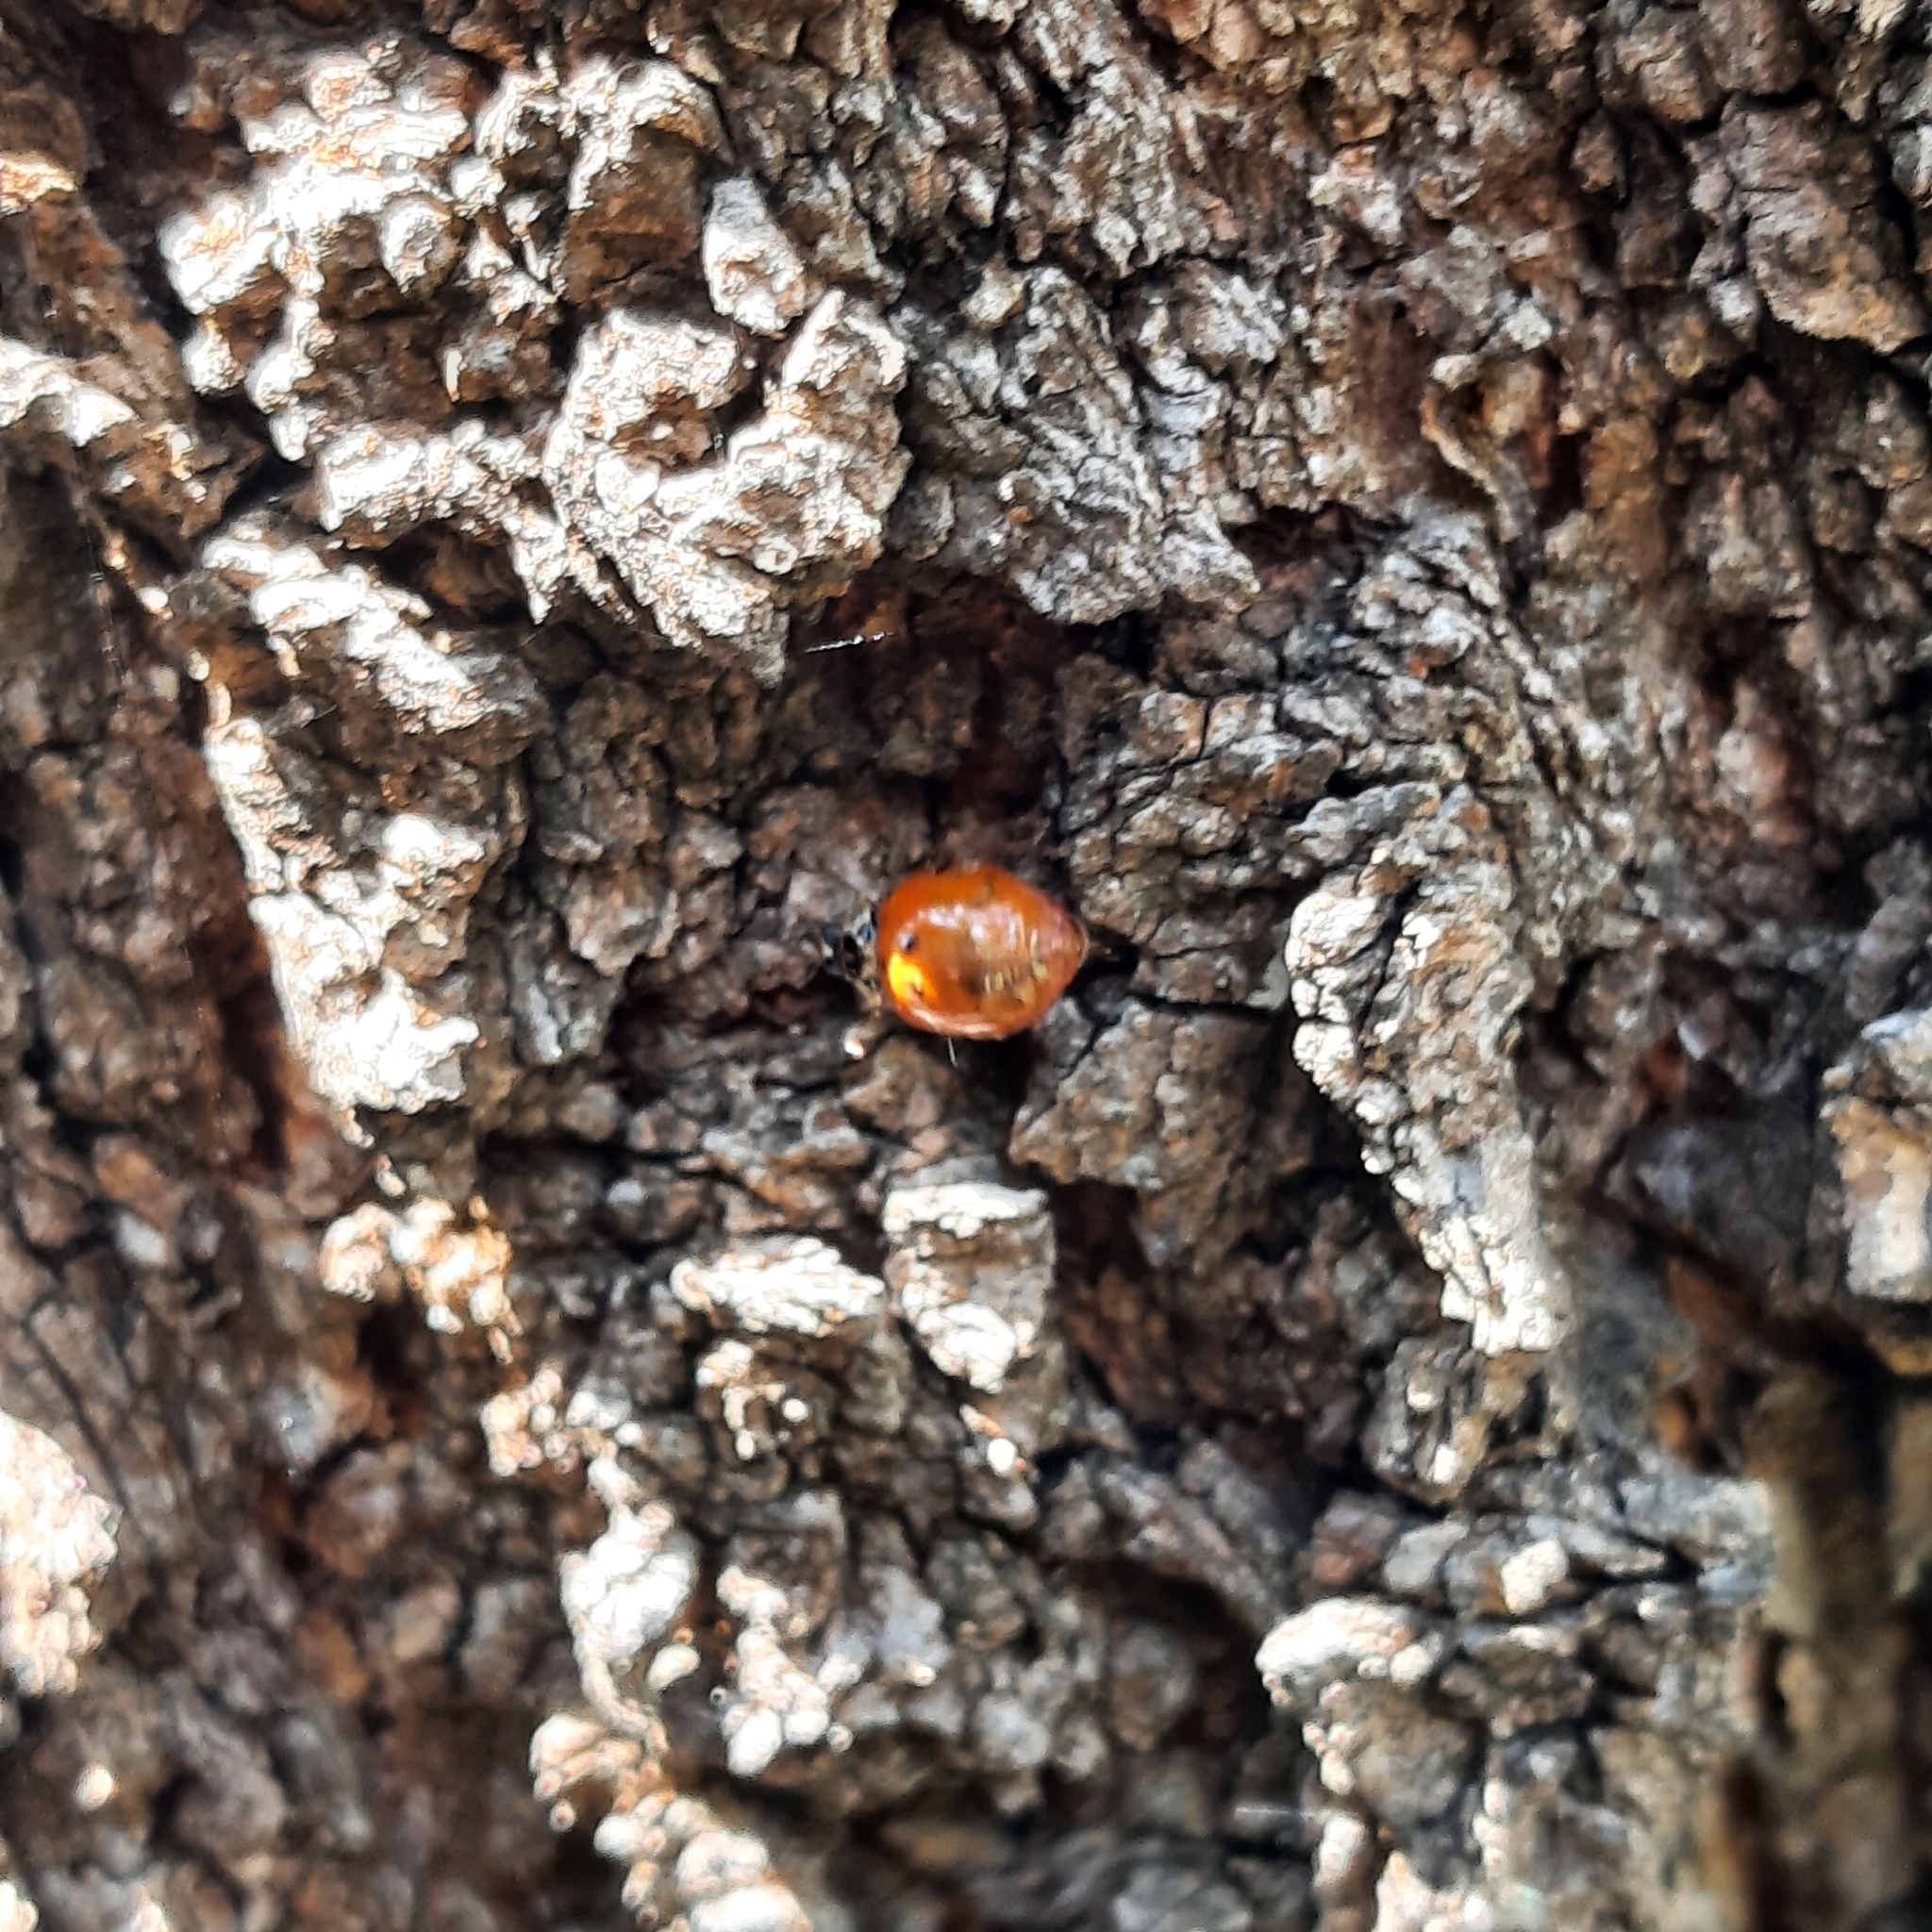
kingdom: Animalia
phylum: Arthropoda
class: Insecta
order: Coleoptera
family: Coccinellidae
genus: Harmonia
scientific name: Harmonia axyridis
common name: Harlequin ladybird
